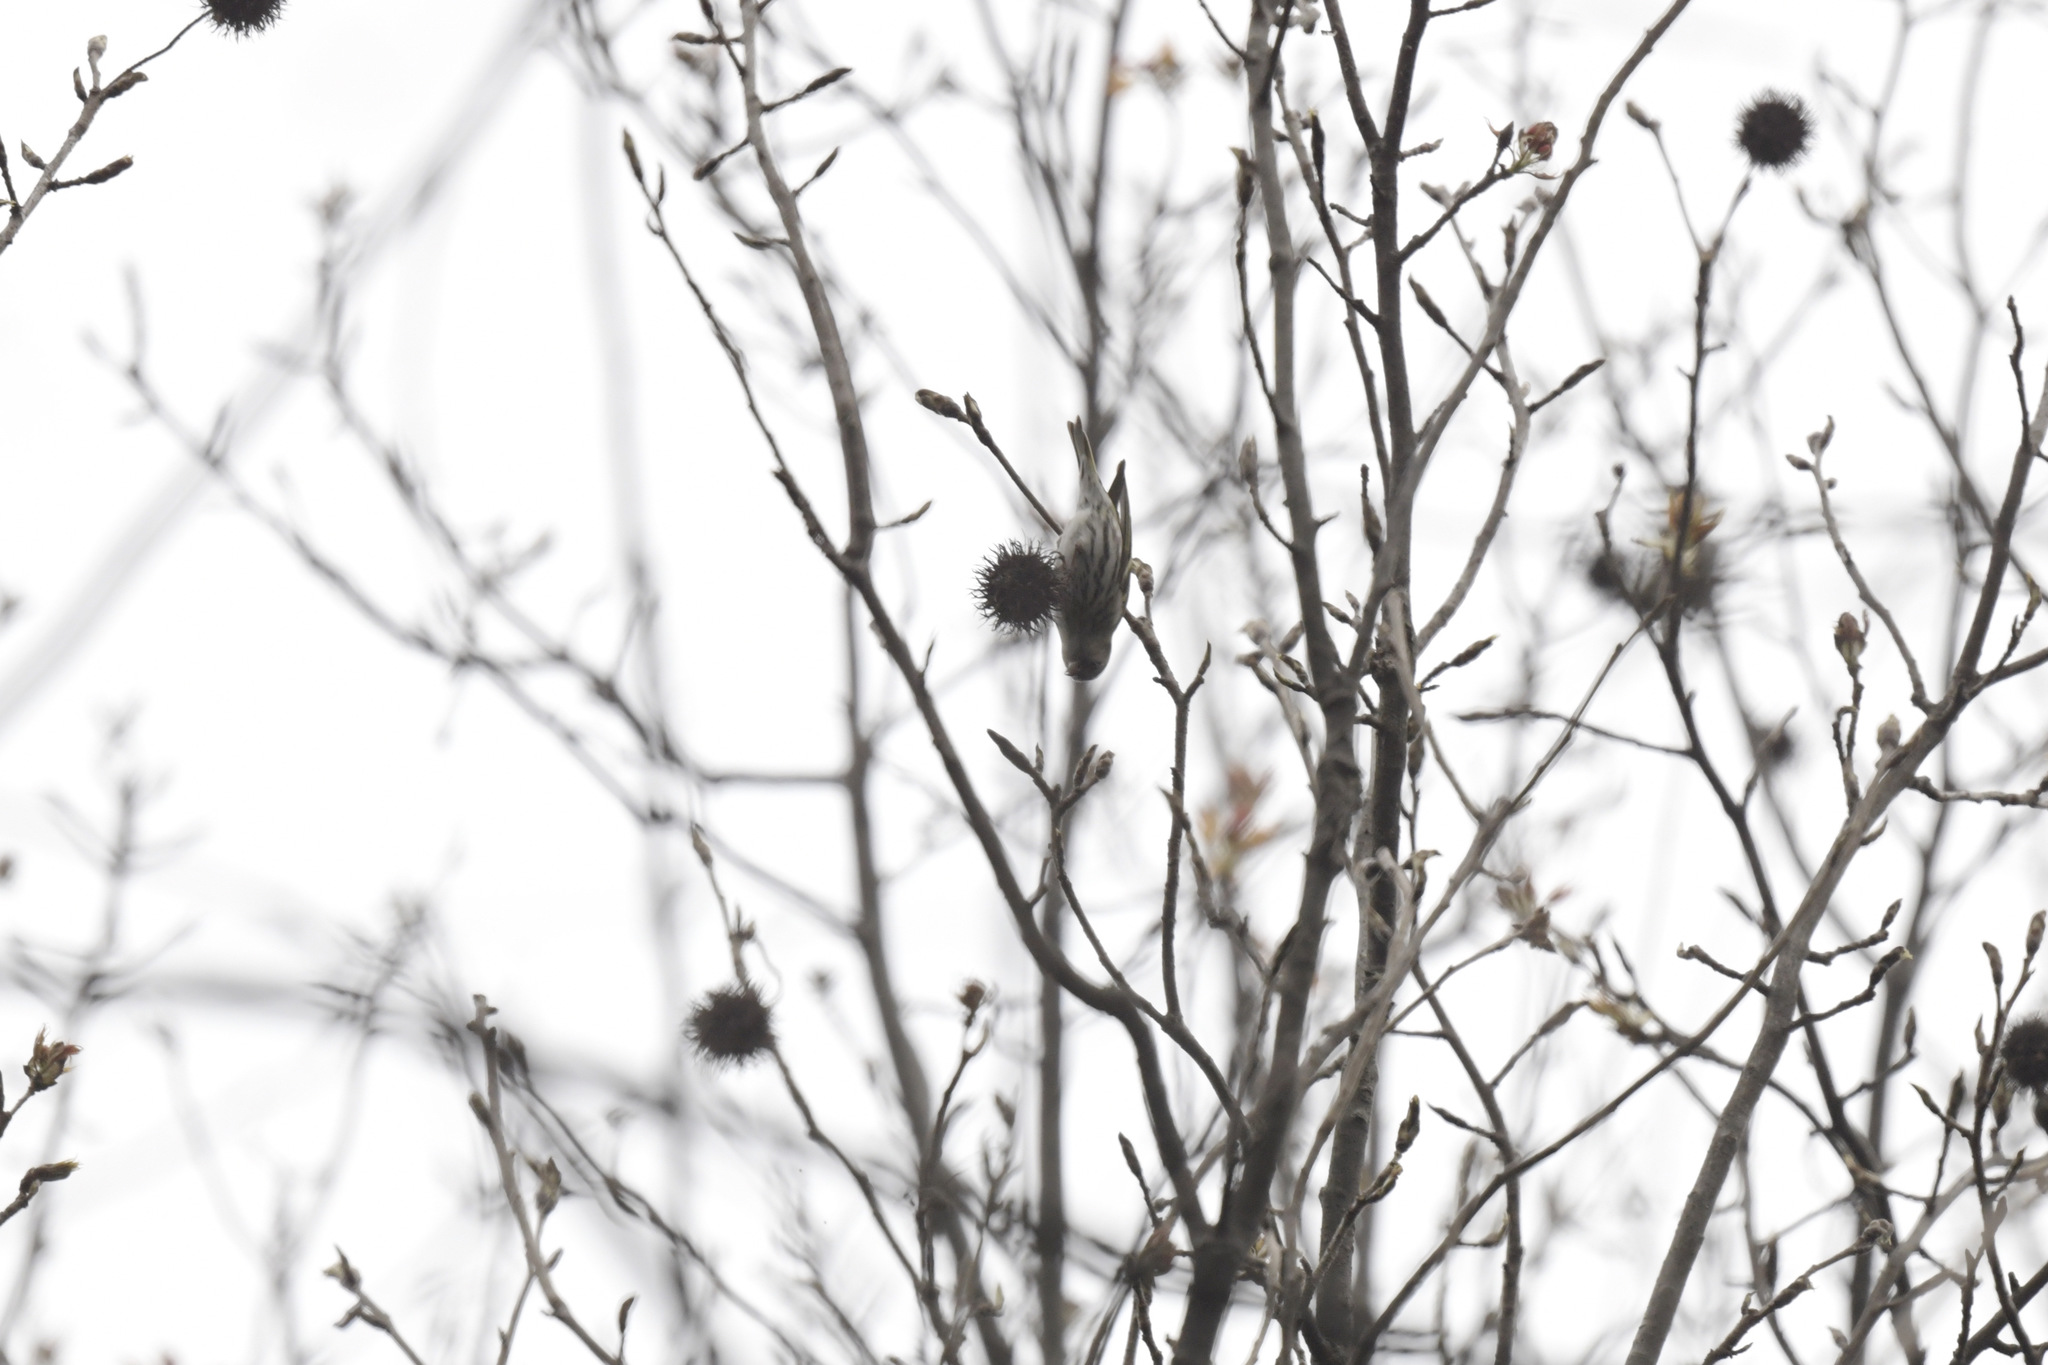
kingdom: Animalia
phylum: Chordata
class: Aves
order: Passeriformes
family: Fringillidae
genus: Spinus
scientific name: Spinus spinus
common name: Eurasian siskin
